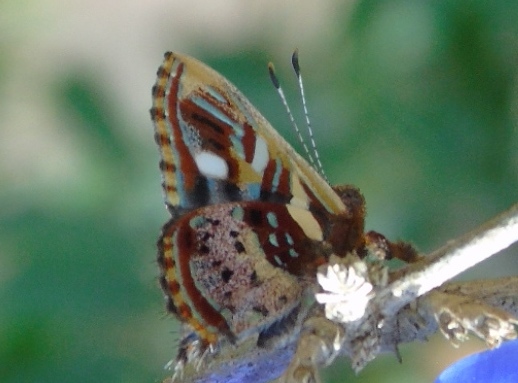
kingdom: Animalia
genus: Anteros
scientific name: Anteros carausius
